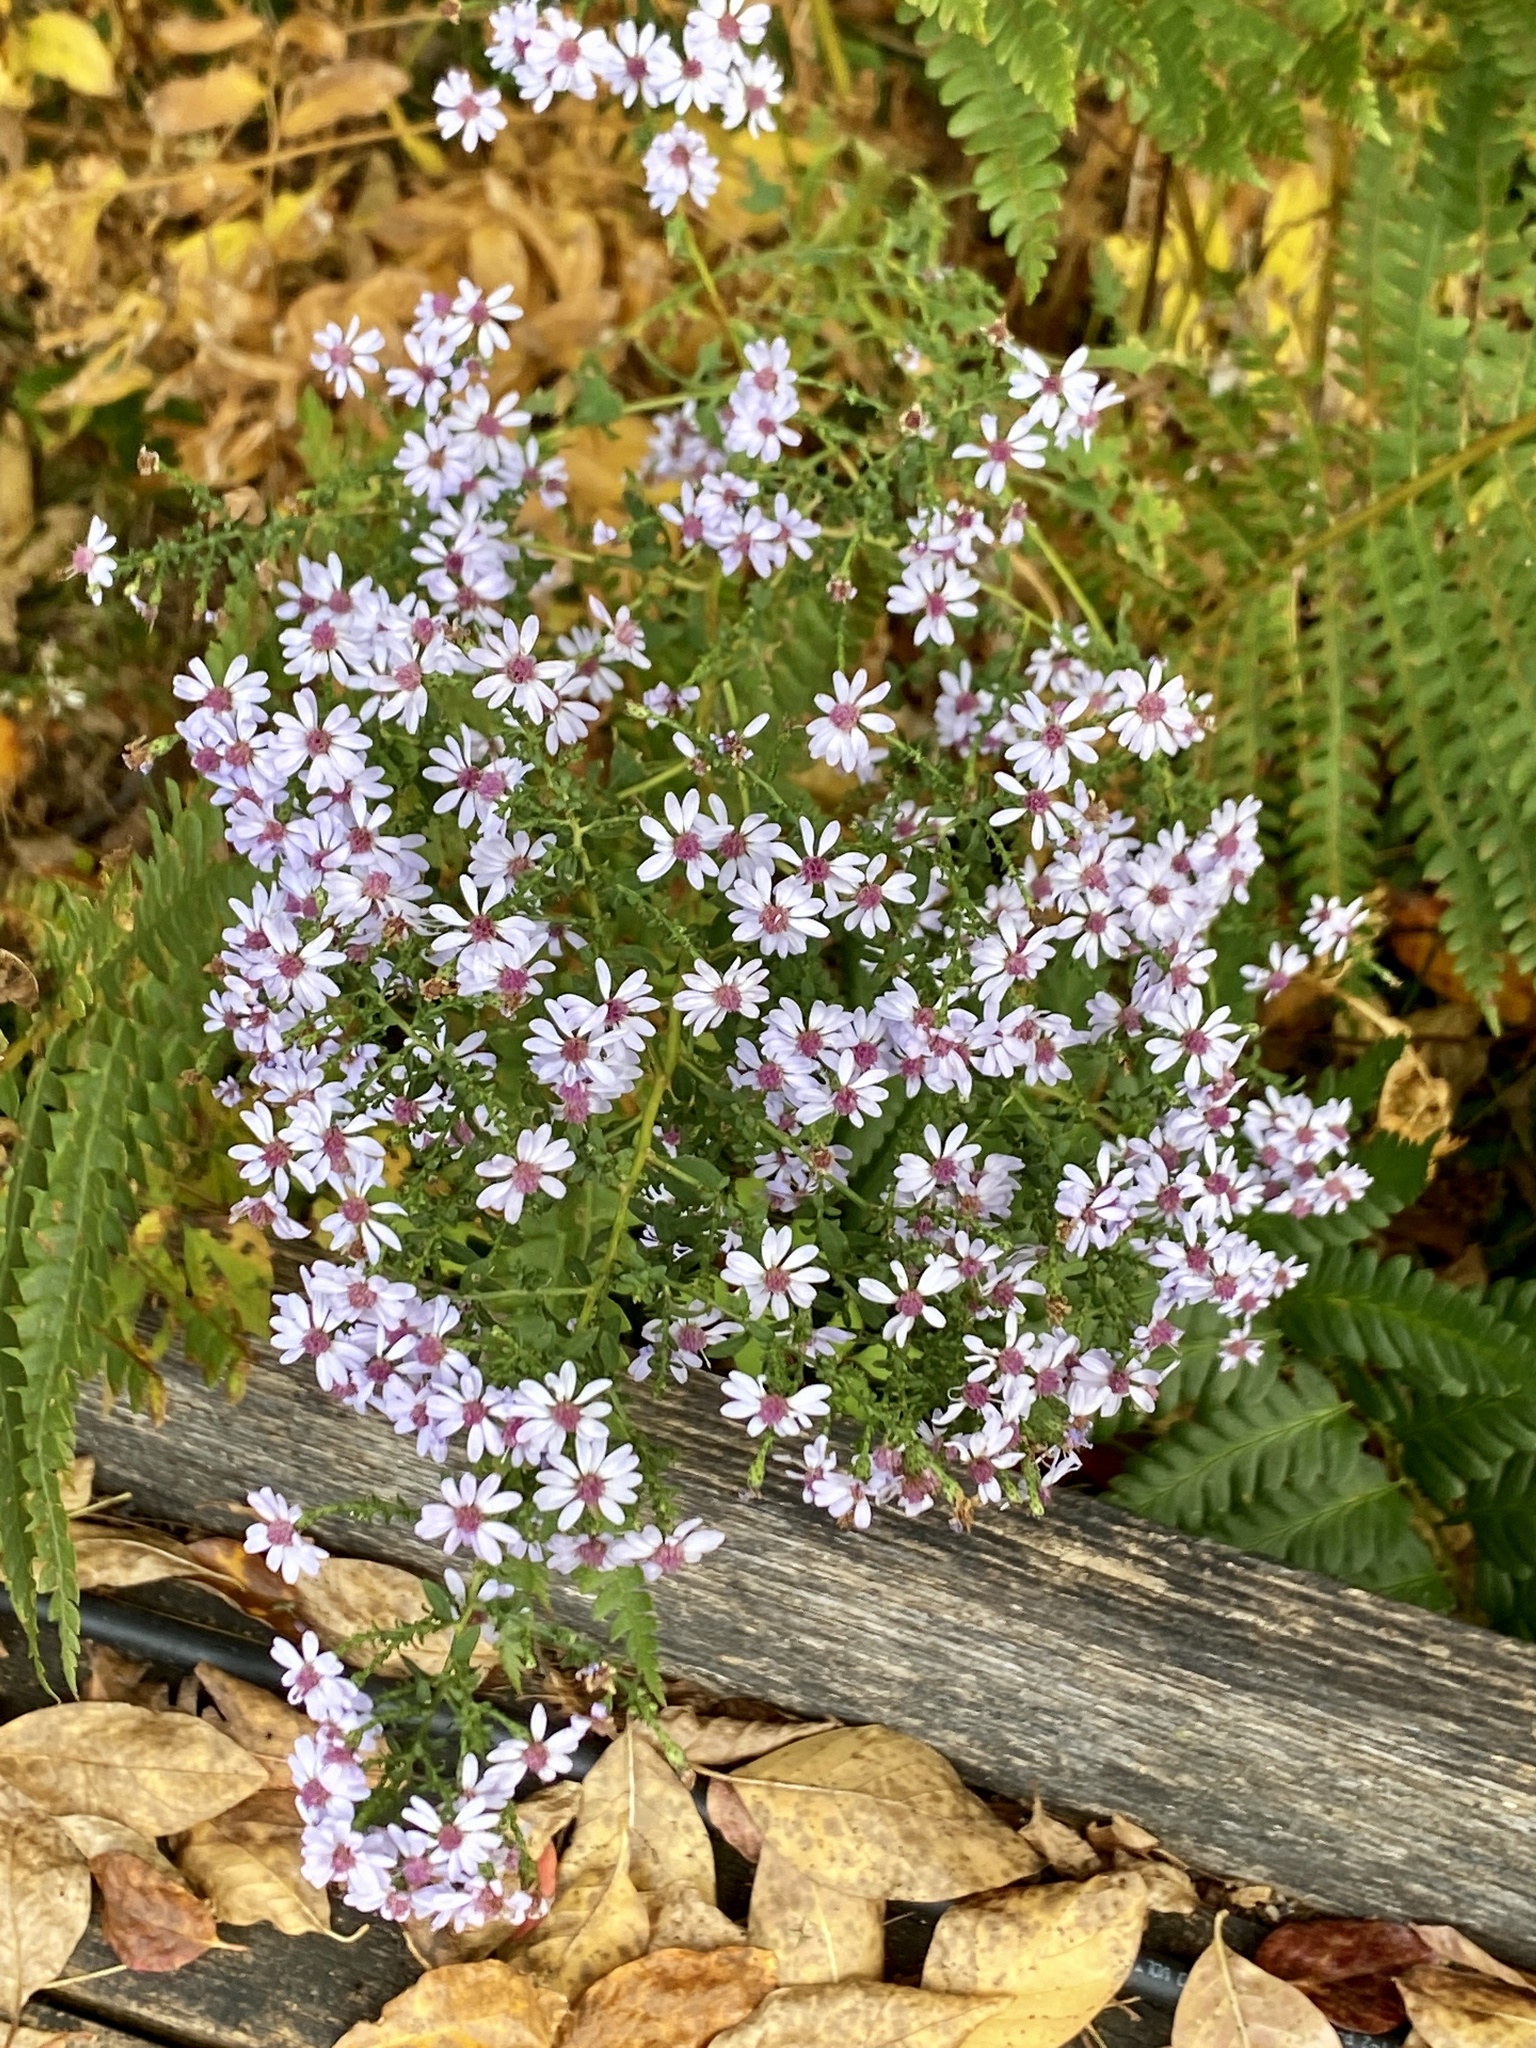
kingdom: Plantae
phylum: Tracheophyta
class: Magnoliopsida
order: Asterales
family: Asteraceae
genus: Symphyotrichum
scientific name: Symphyotrichum cordifolium
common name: Beeweed
